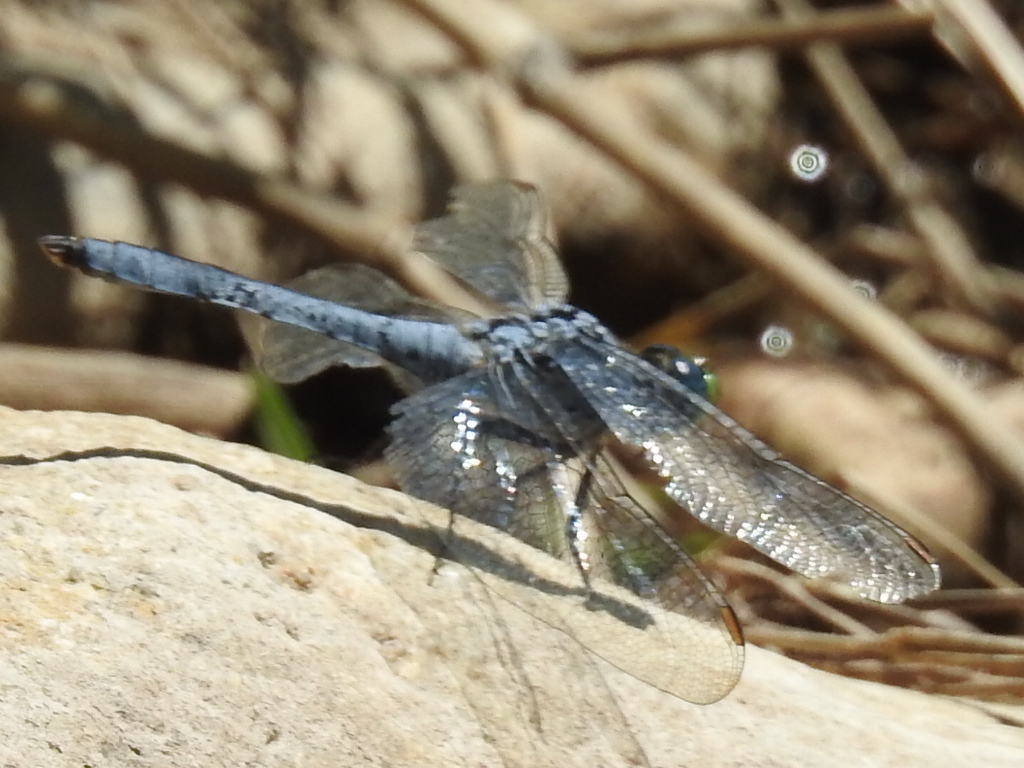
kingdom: Animalia
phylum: Arthropoda
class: Insecta
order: Odonata
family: Libellulidae
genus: Erythemis
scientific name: Erythemis collocata
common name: Western pondhawk
